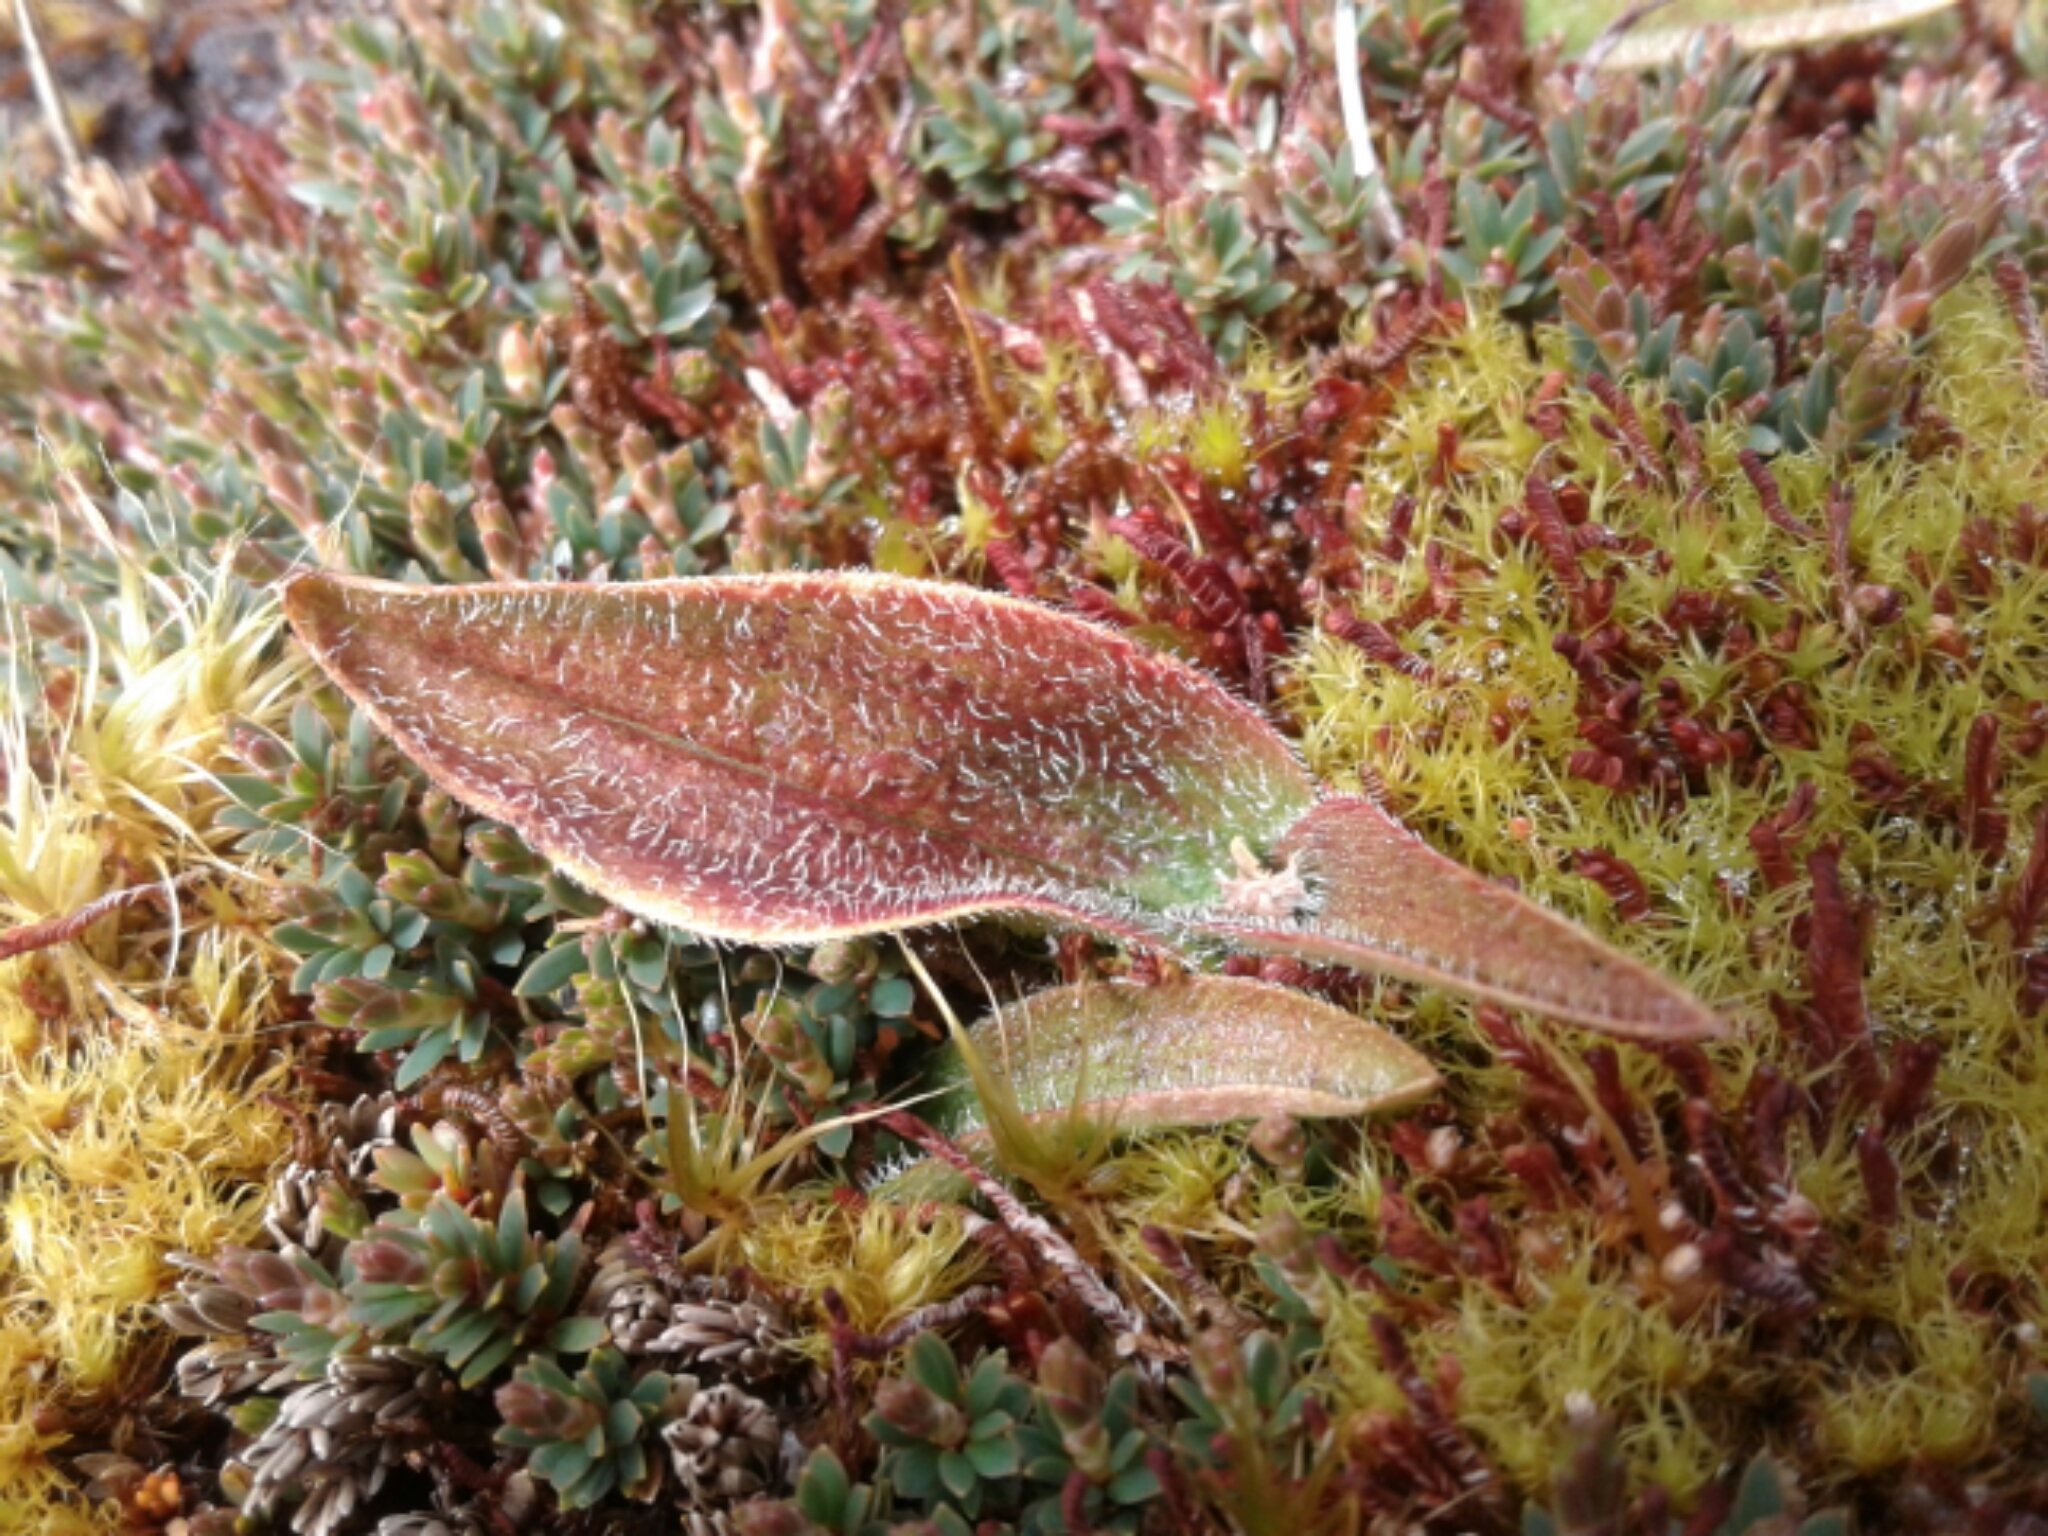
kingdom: Plantae
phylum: Tracheophyta
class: Liliopsida
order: Asparagales
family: Orchidaceae
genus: Aporostylis
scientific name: Aporostylis bifolia
